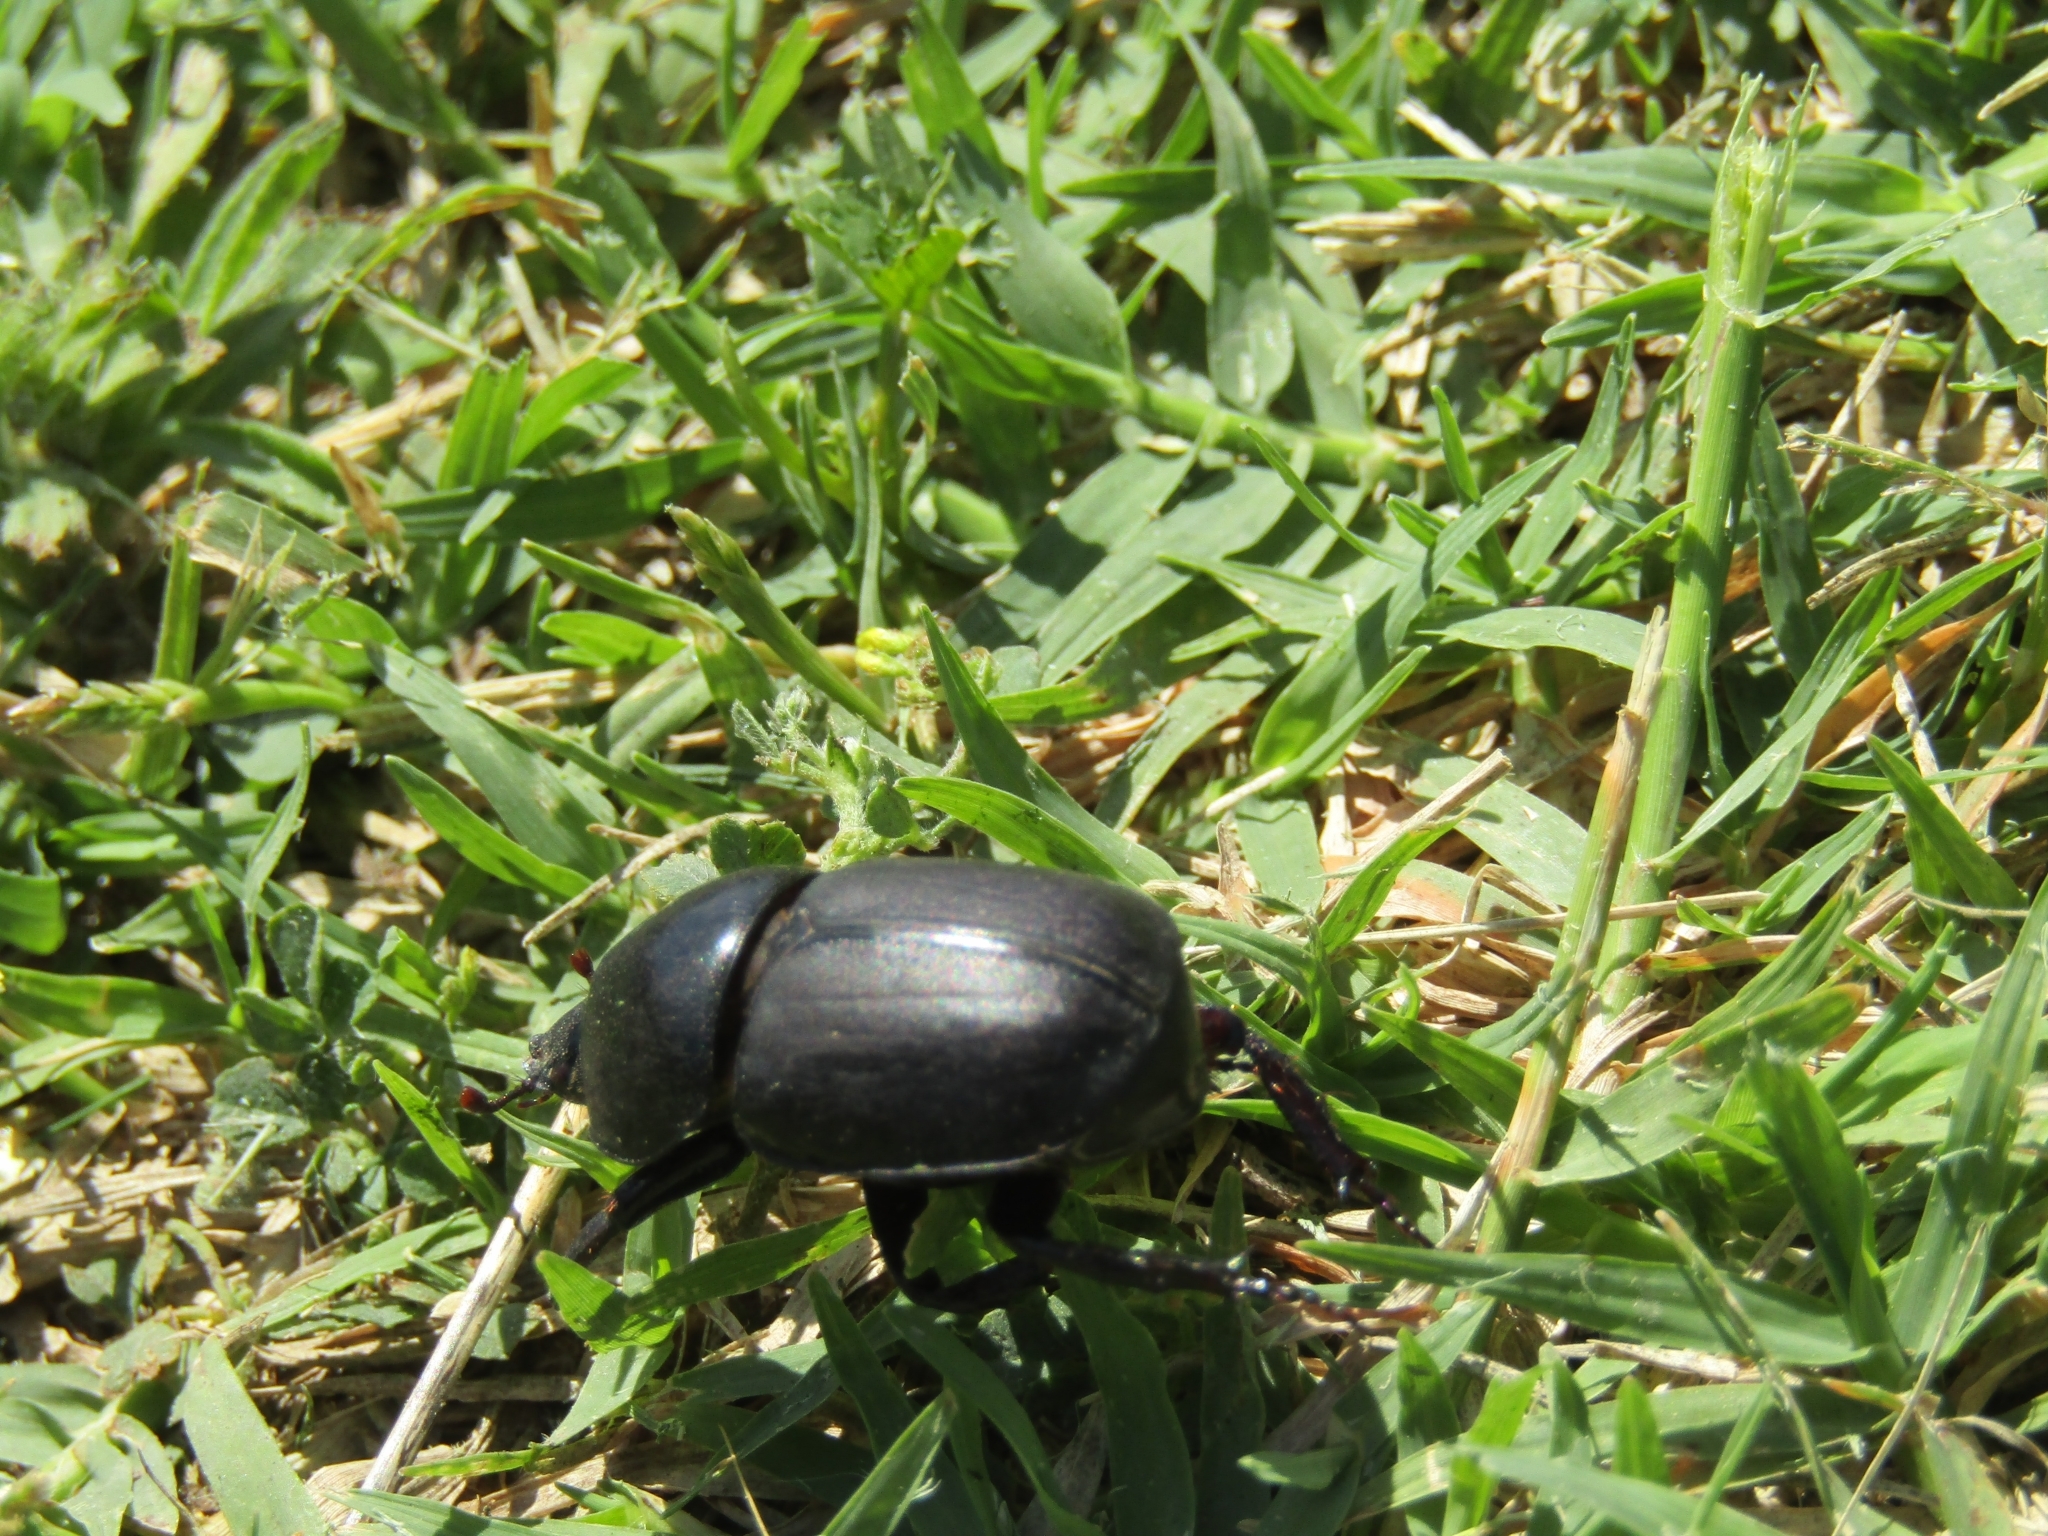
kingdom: Animalia
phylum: Arthropoda
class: Insecta
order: Coleoptera
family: Scarabaeidae
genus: Diloboderus
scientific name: Diloboderus abderus
